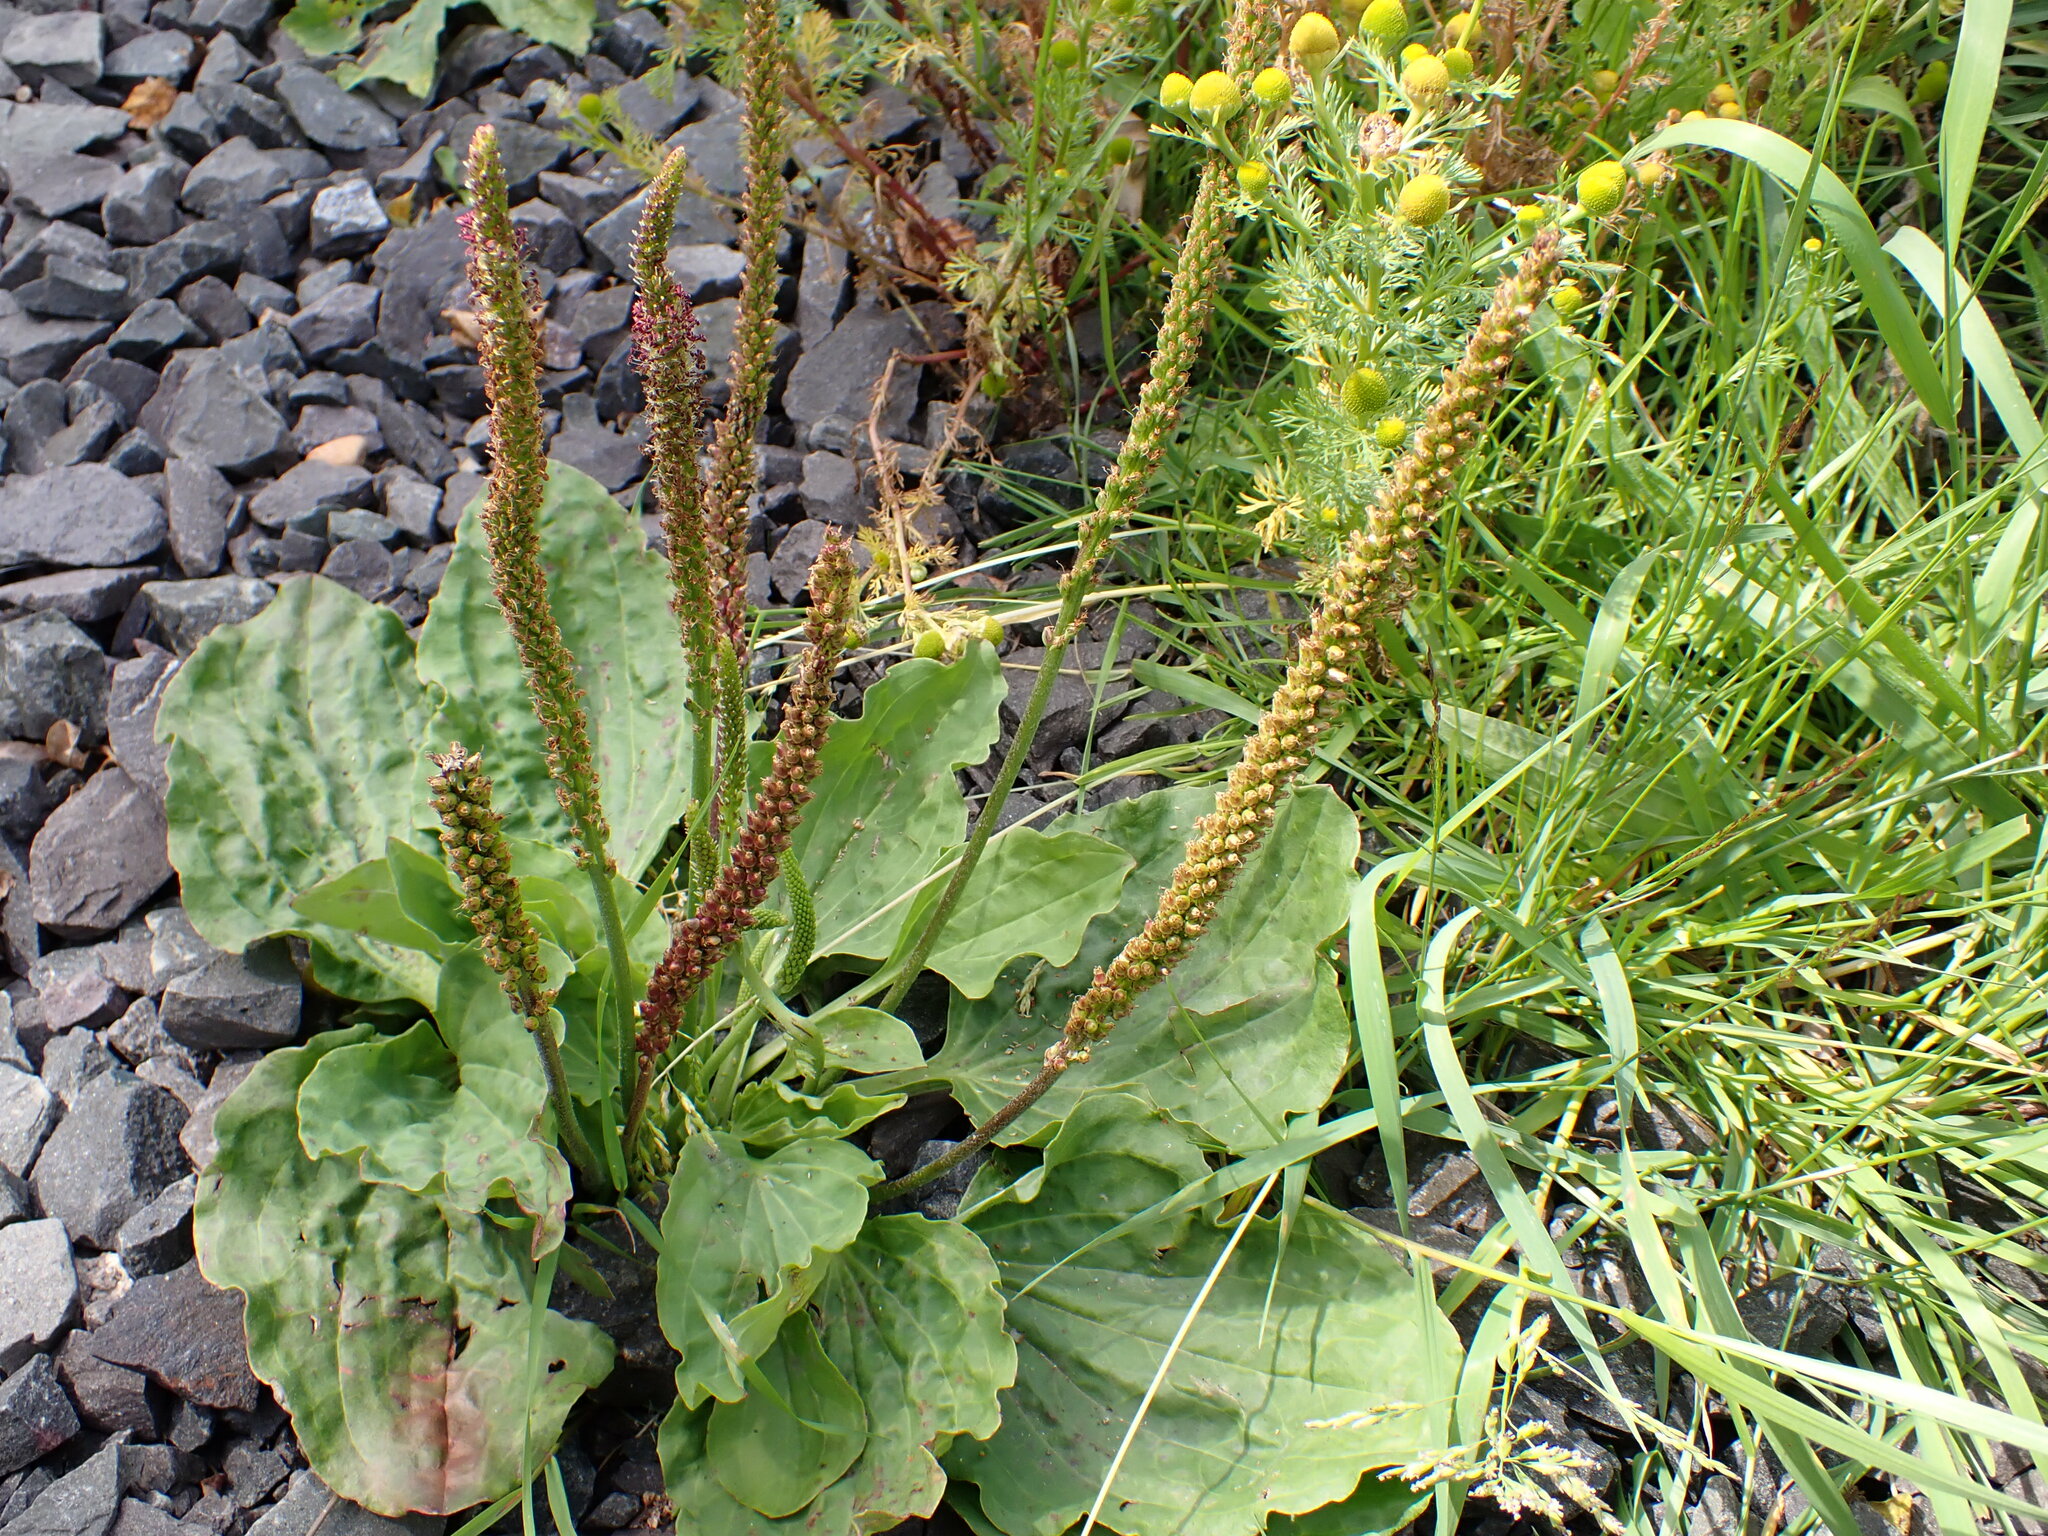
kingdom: Plantae
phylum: Tracheophyta
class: Magnoliopsida
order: Lamiales
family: Plantaginaceae
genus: Plantago
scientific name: Plantago major
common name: Common plantain
